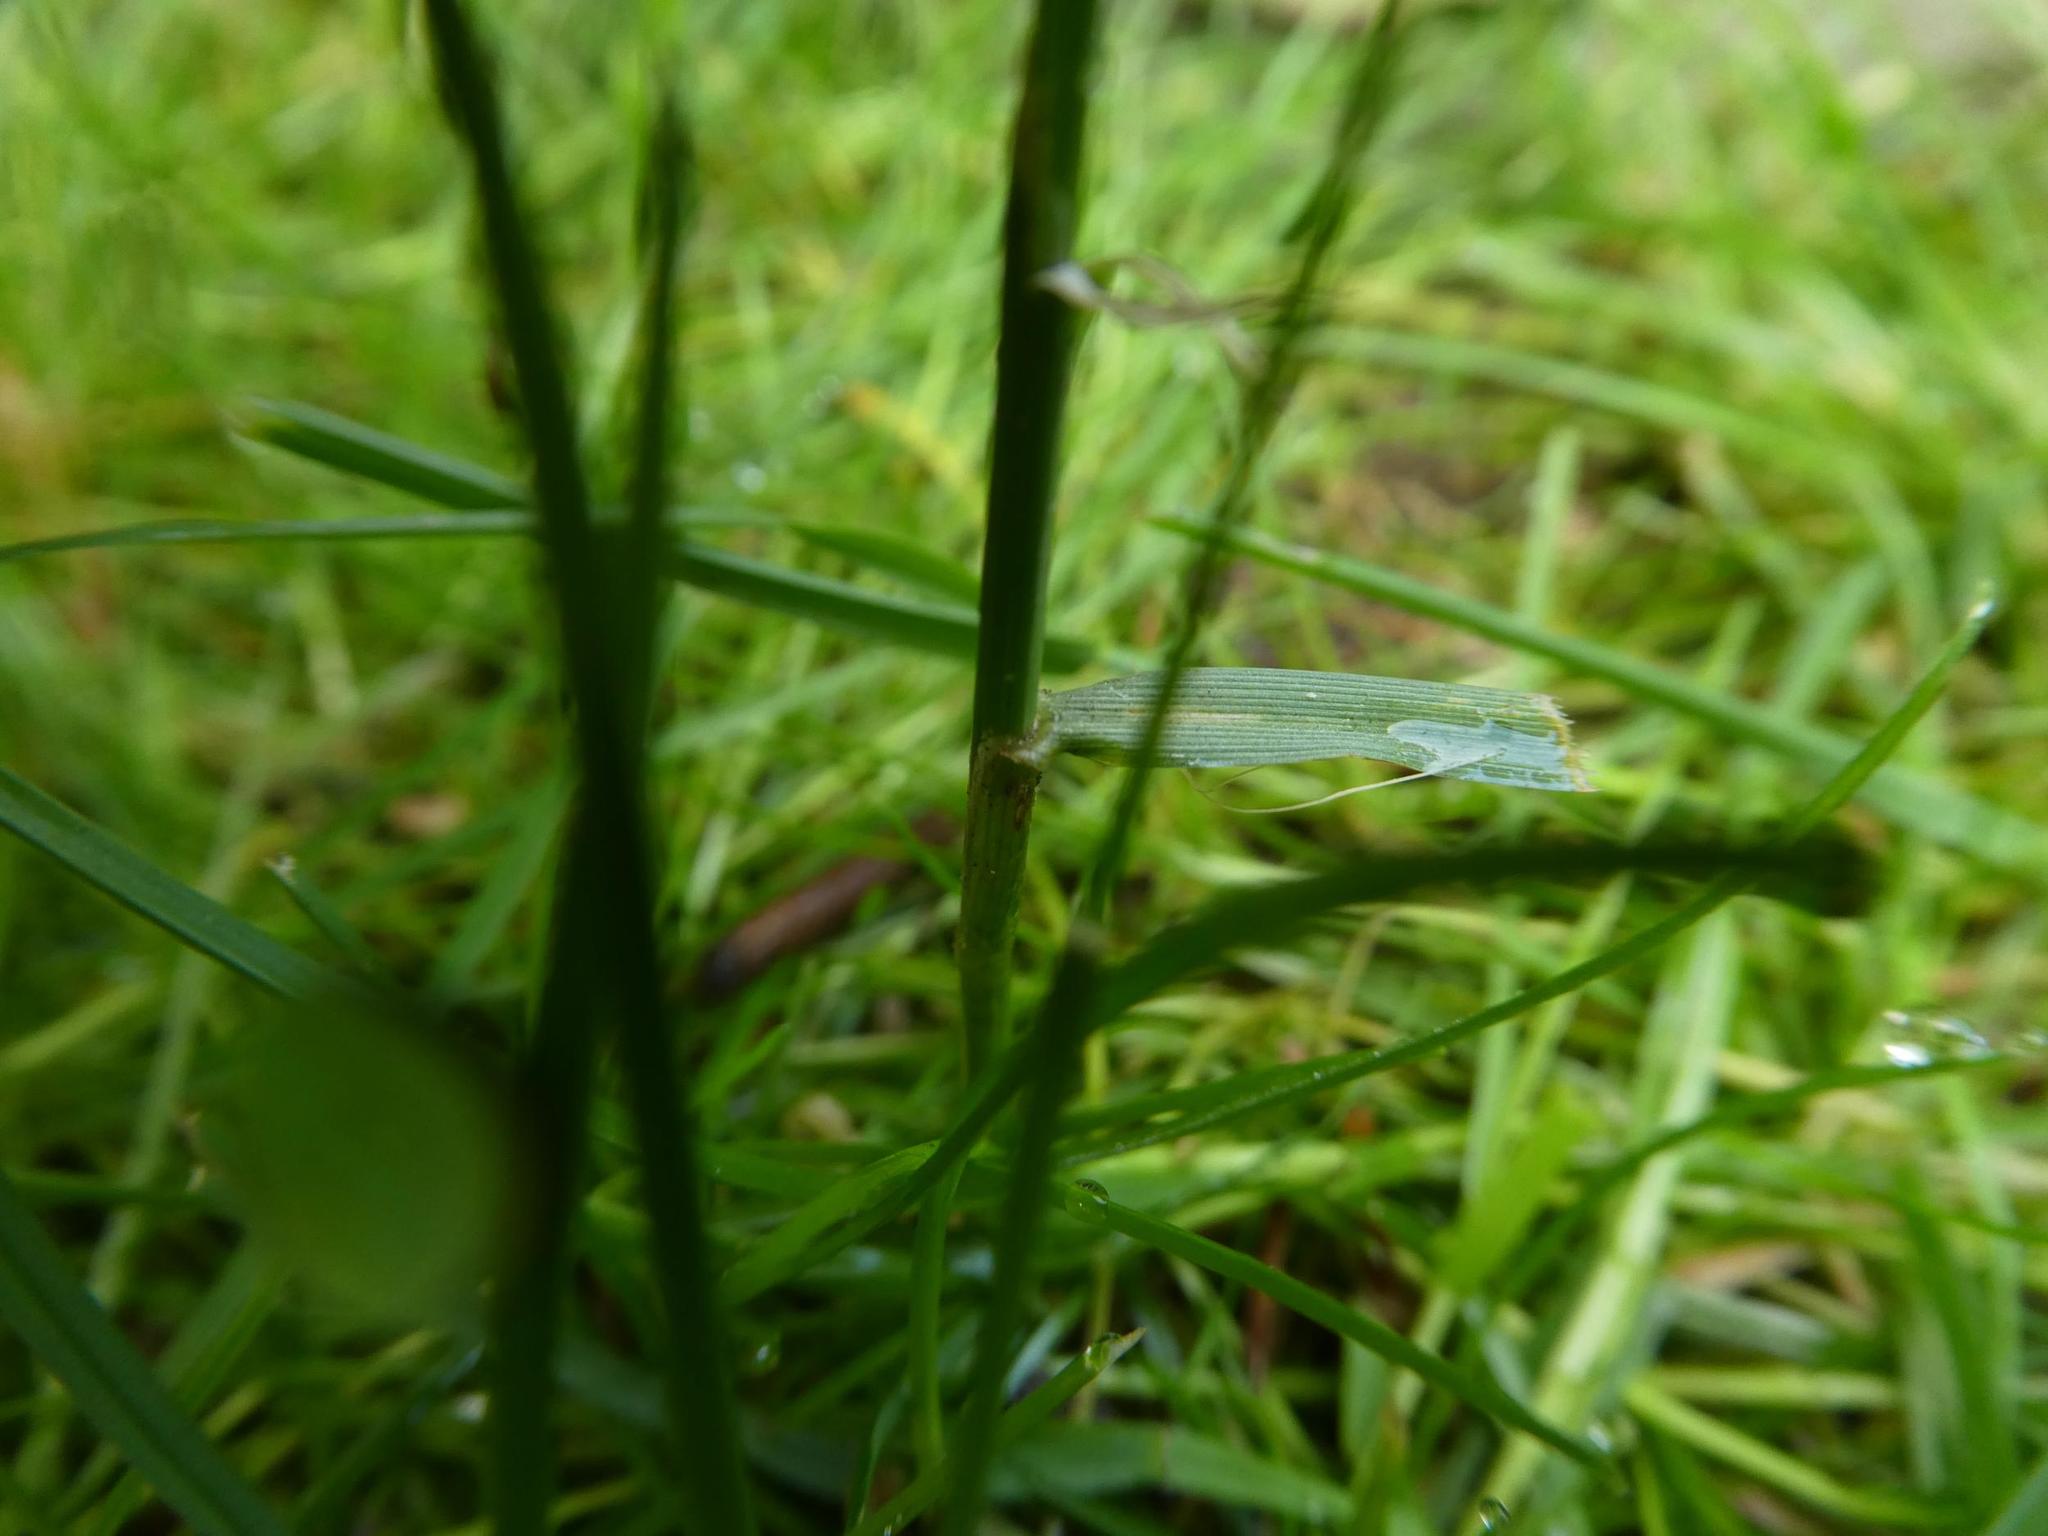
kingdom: Plantae
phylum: Tracheophyta
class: Liliopsida
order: Poales
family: Poaceae
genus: Lolium
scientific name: Lolium perenne
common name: Perennial ryegrass
